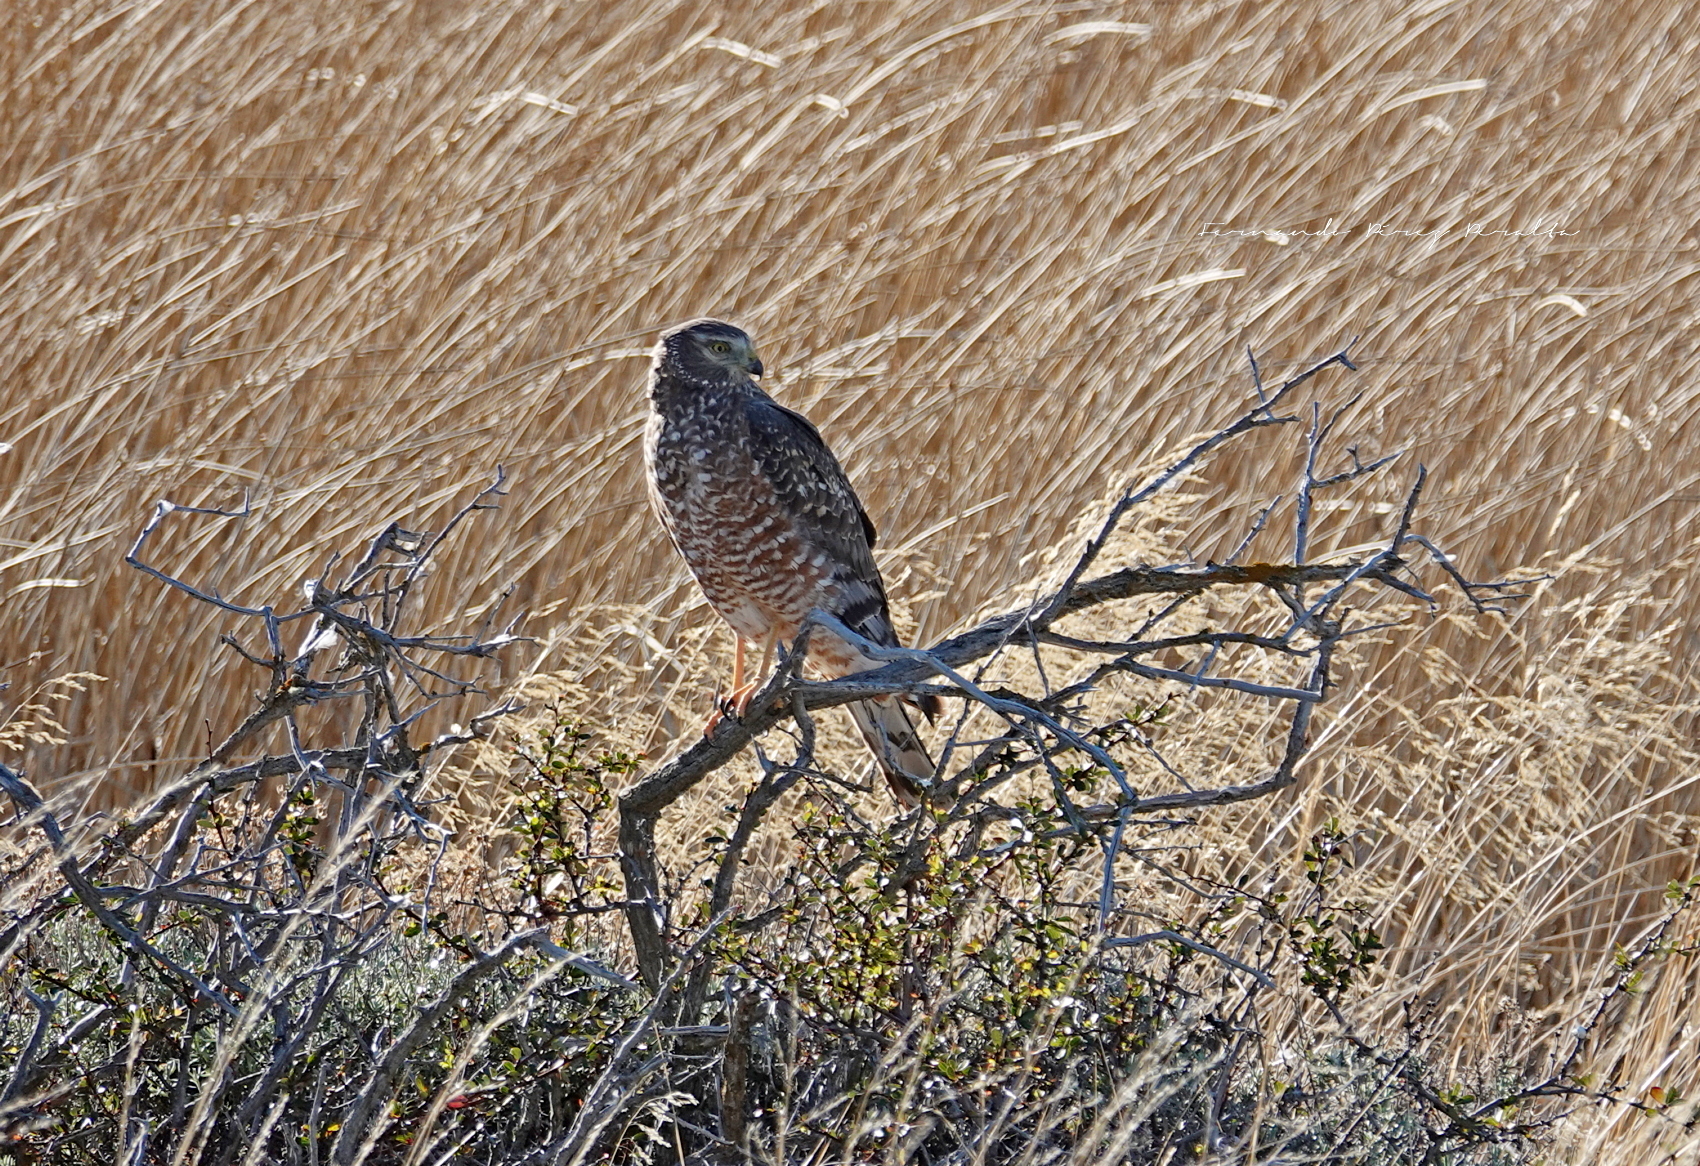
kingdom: Animalia
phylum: Chordata
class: Aves
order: Accipitriformes
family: Accipitridae
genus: Circus
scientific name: Circus cinereus
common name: Cinereous harrier
